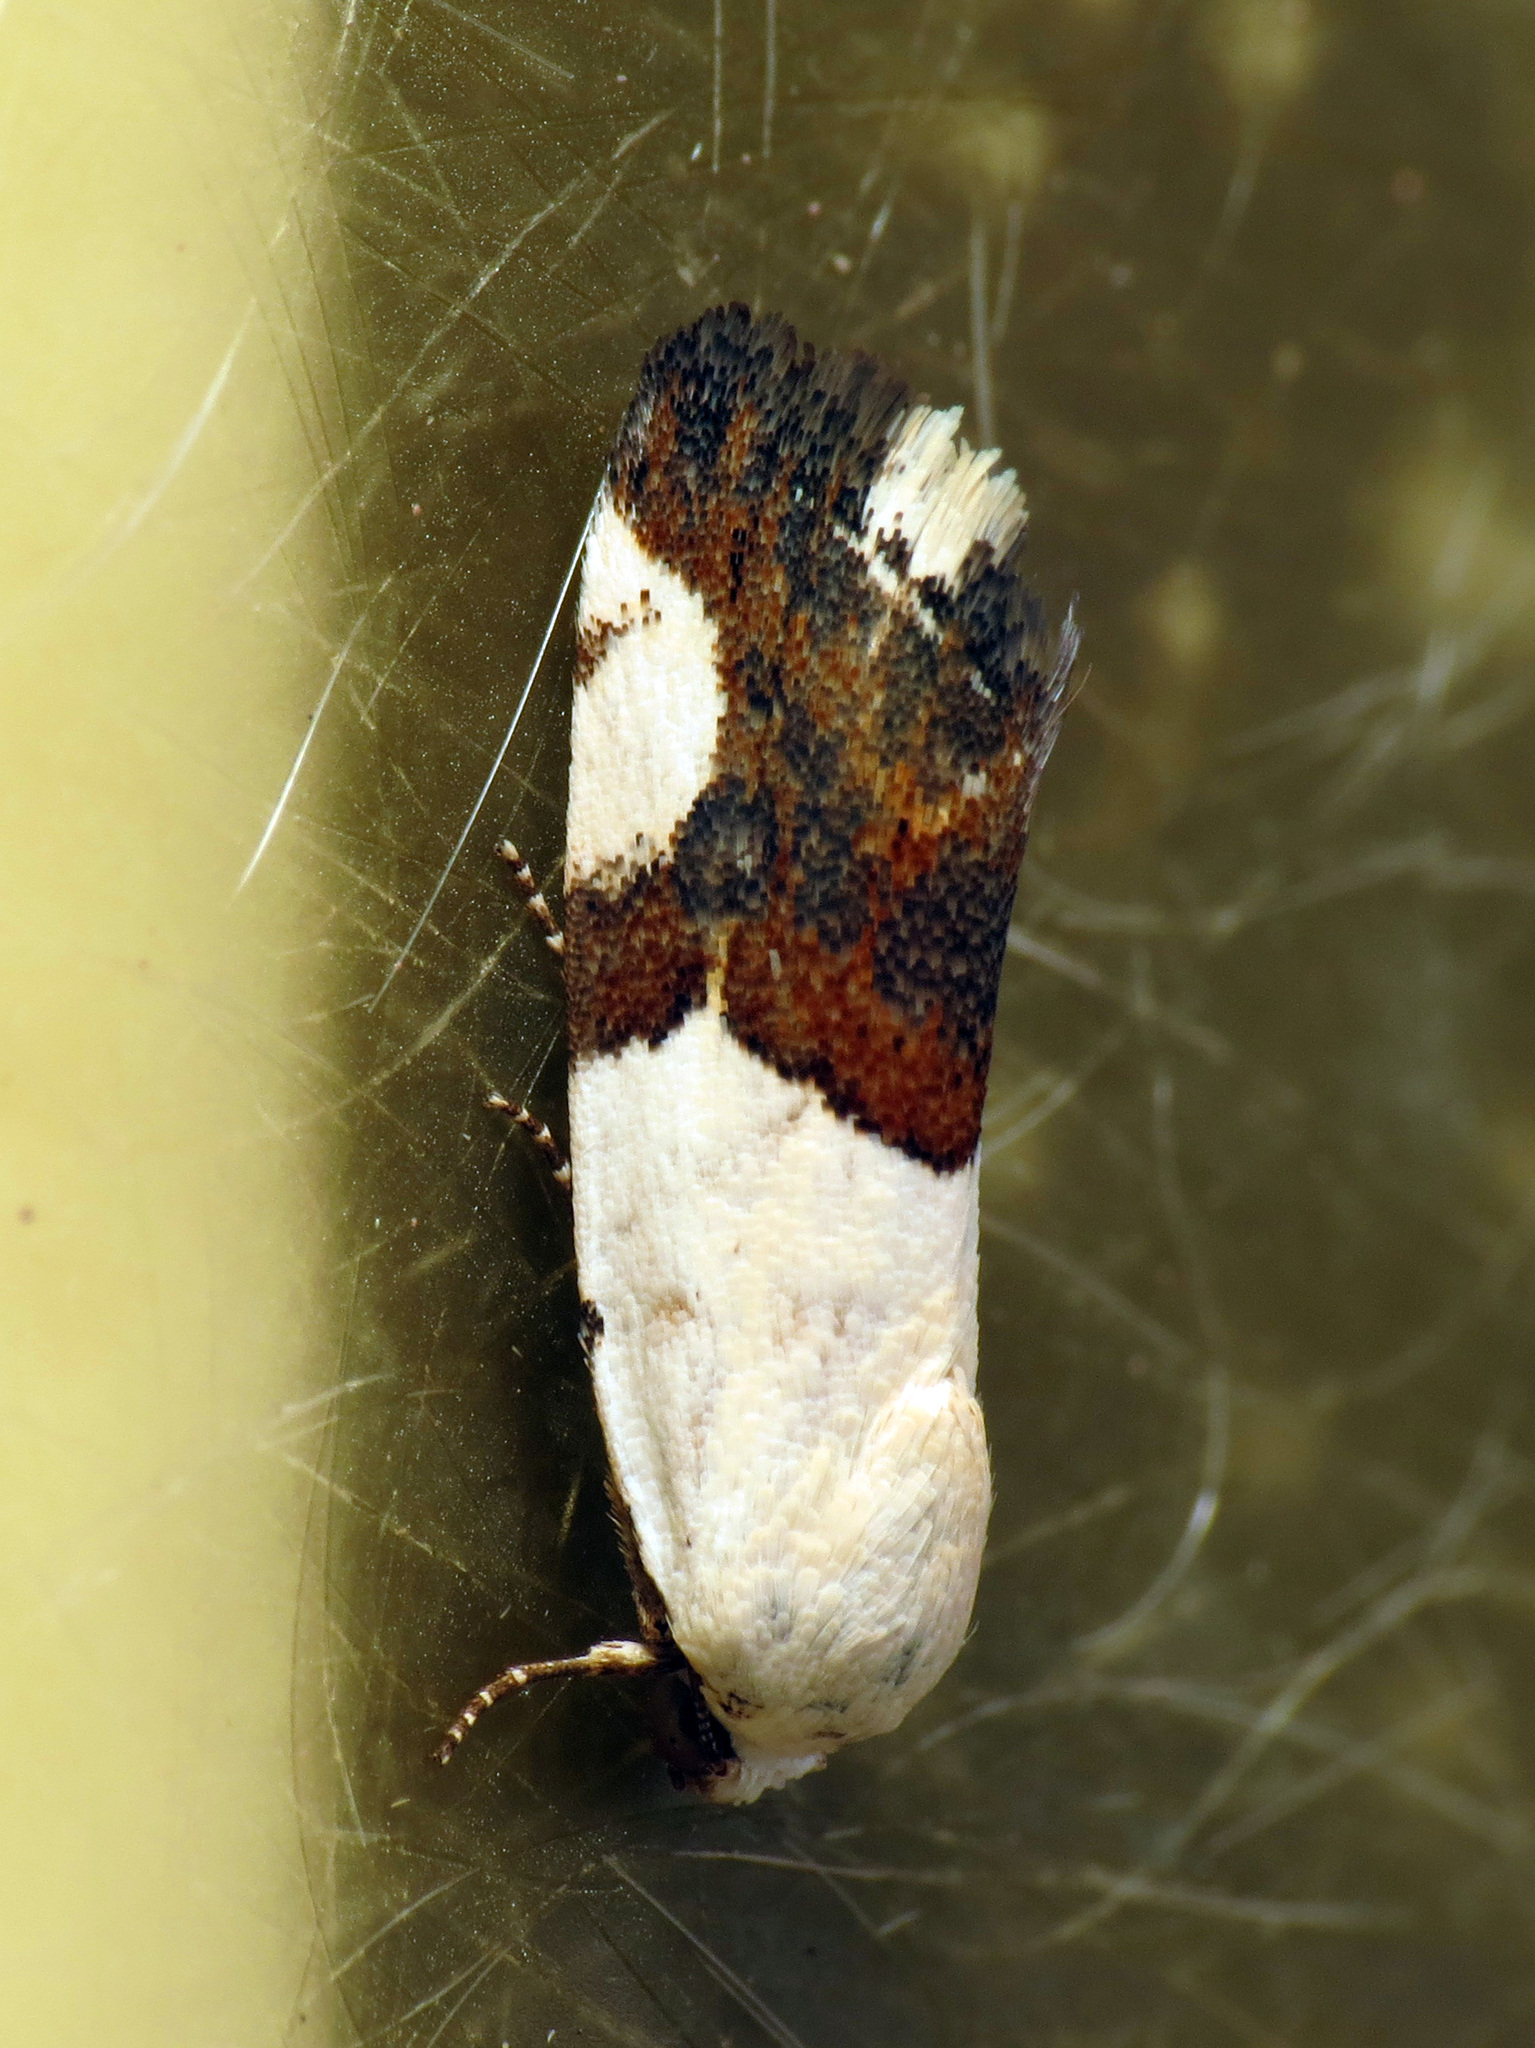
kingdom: Animalia
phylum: Arthropoda
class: Insecta
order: Lepidoptera
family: Noctuidae
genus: Acontia
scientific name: Acontia cuta
